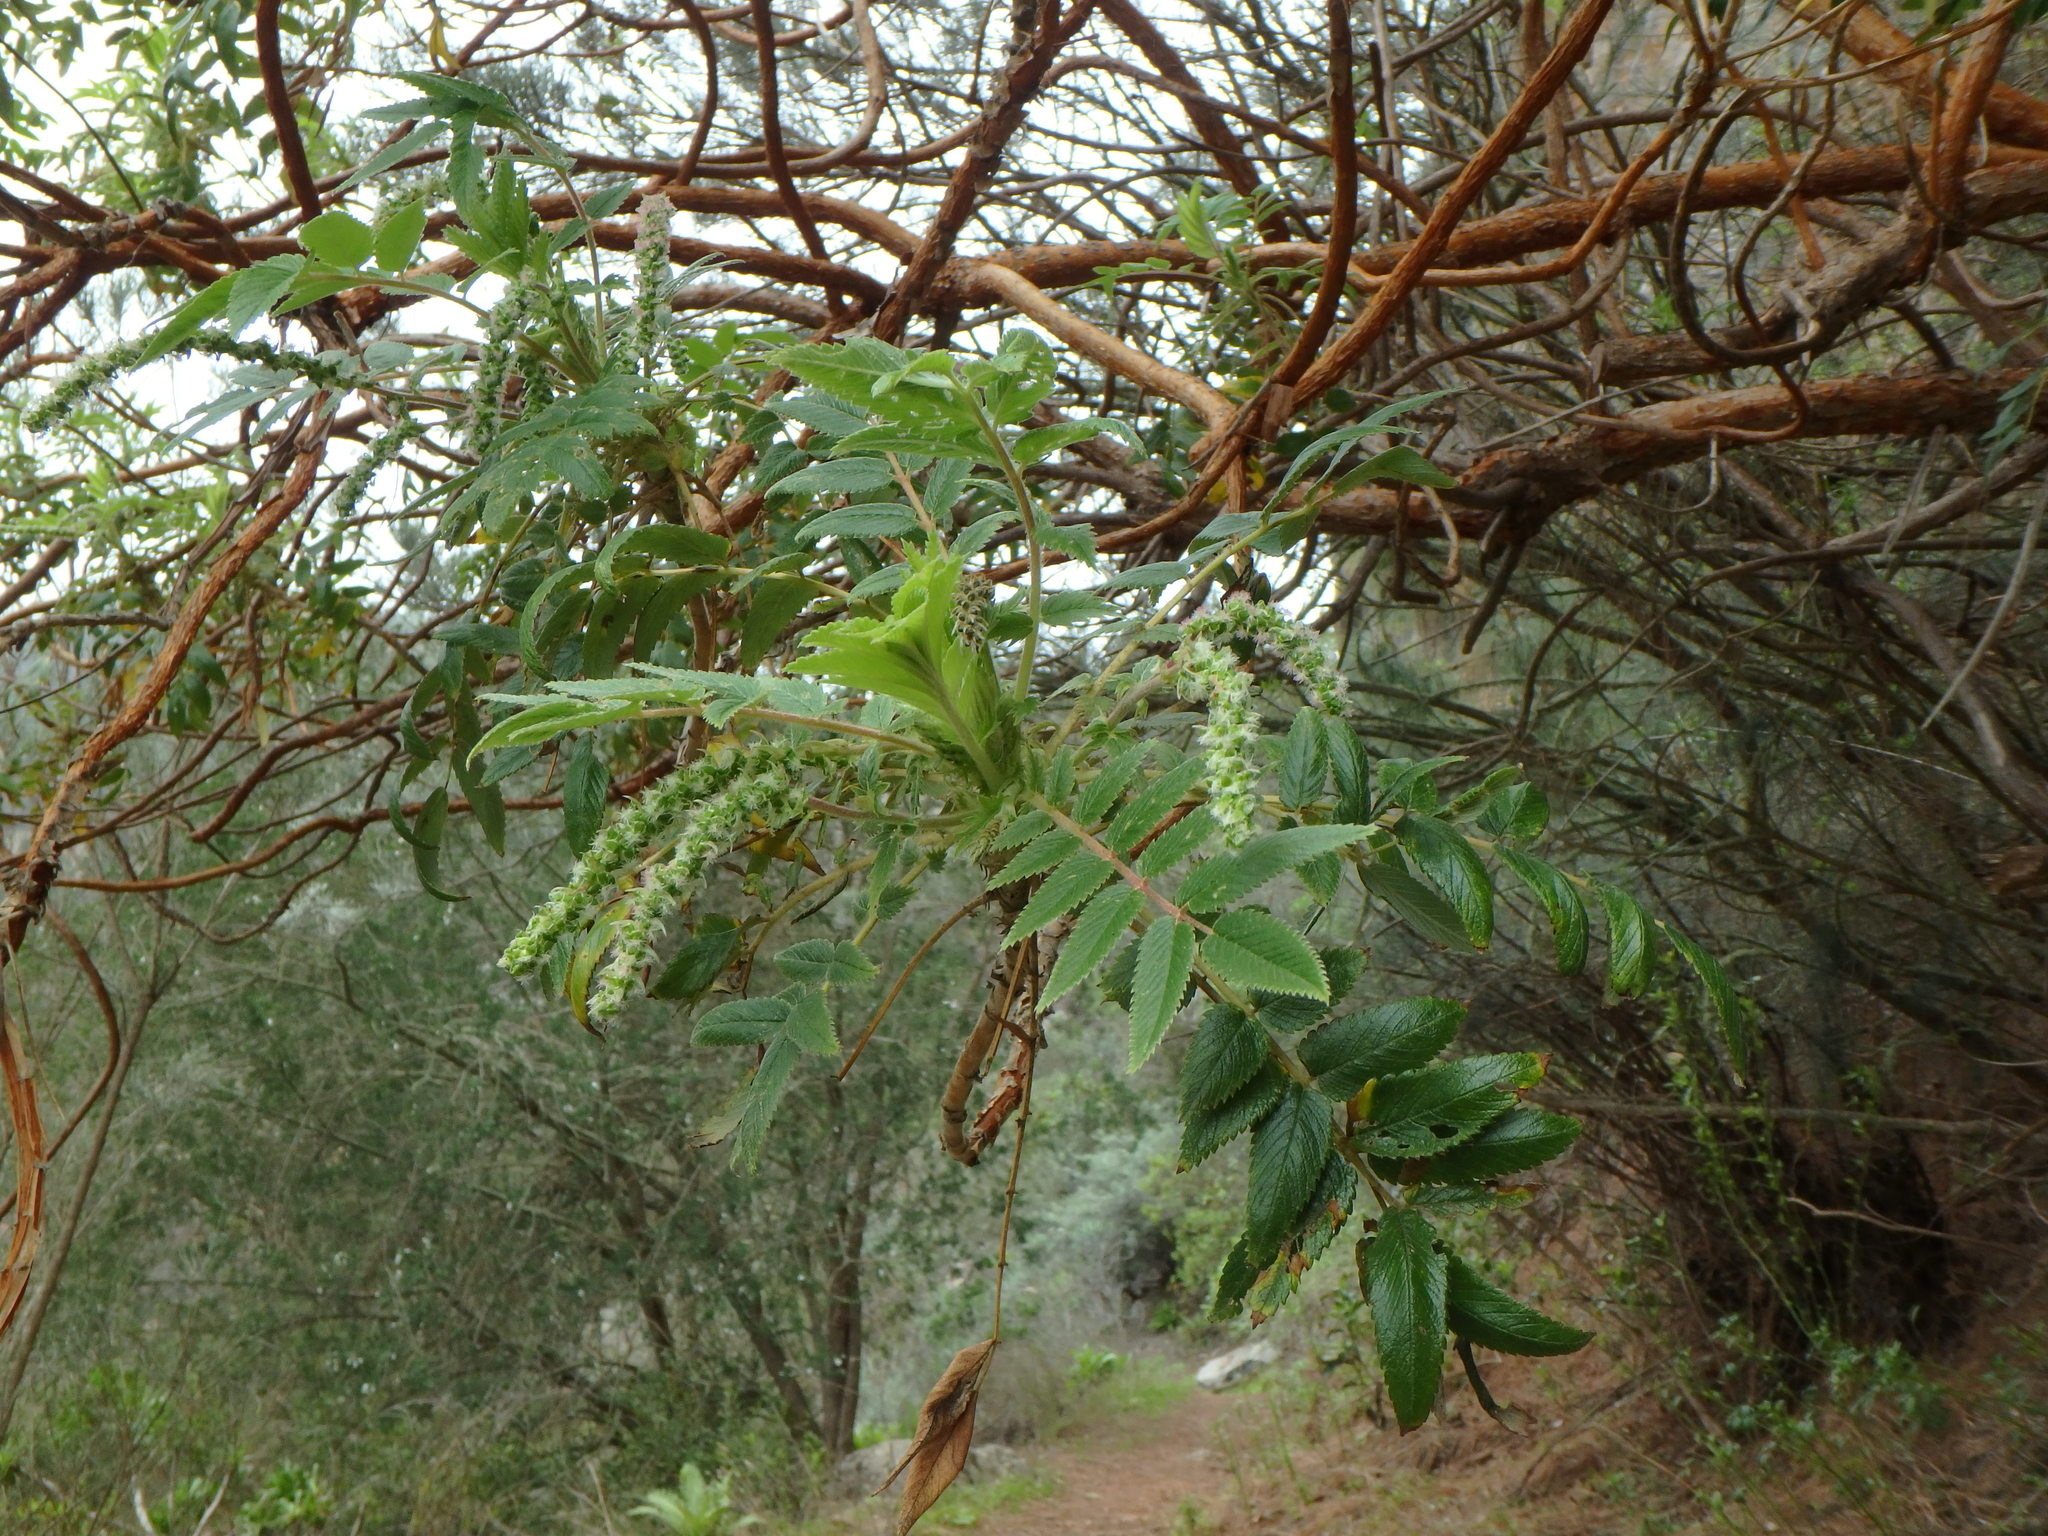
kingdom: Plantae
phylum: Tracheophyta
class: Magnoliopsida
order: Rosales
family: Rosaceae
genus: Bencomia
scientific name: Bencomia caudata
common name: Bencomia
